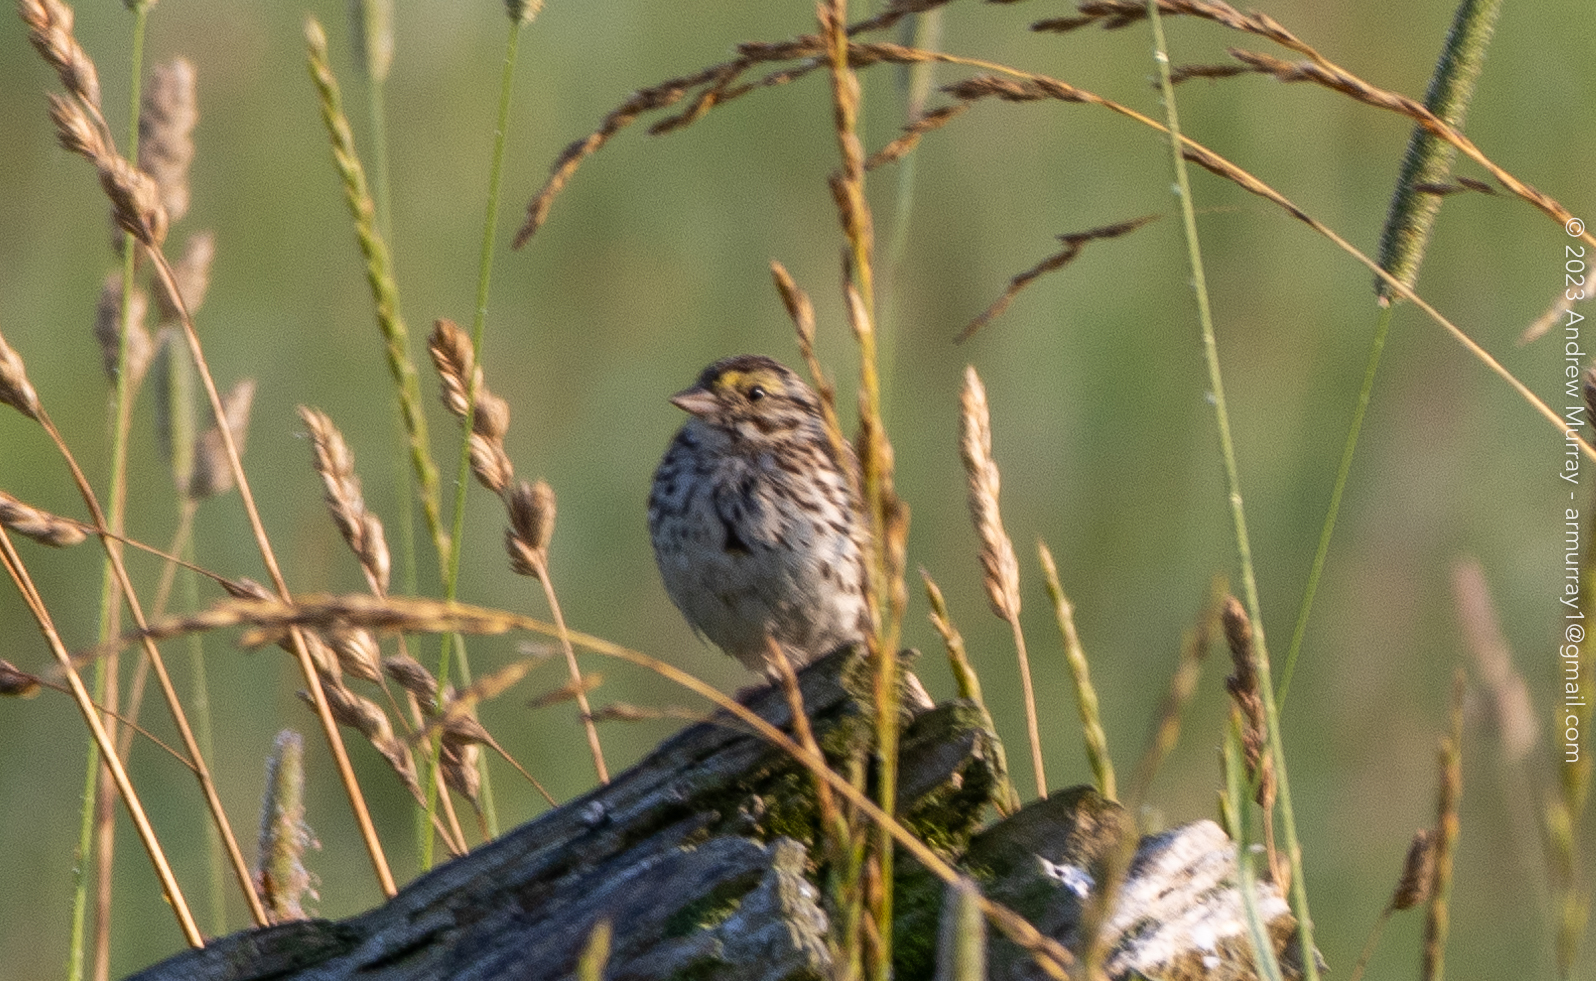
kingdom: Animalia
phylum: Chordata
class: Aves
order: Passeriformes
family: Passerellidae
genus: Passerculus
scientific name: Passerculus sandwichensis
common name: Savannah sparrow
